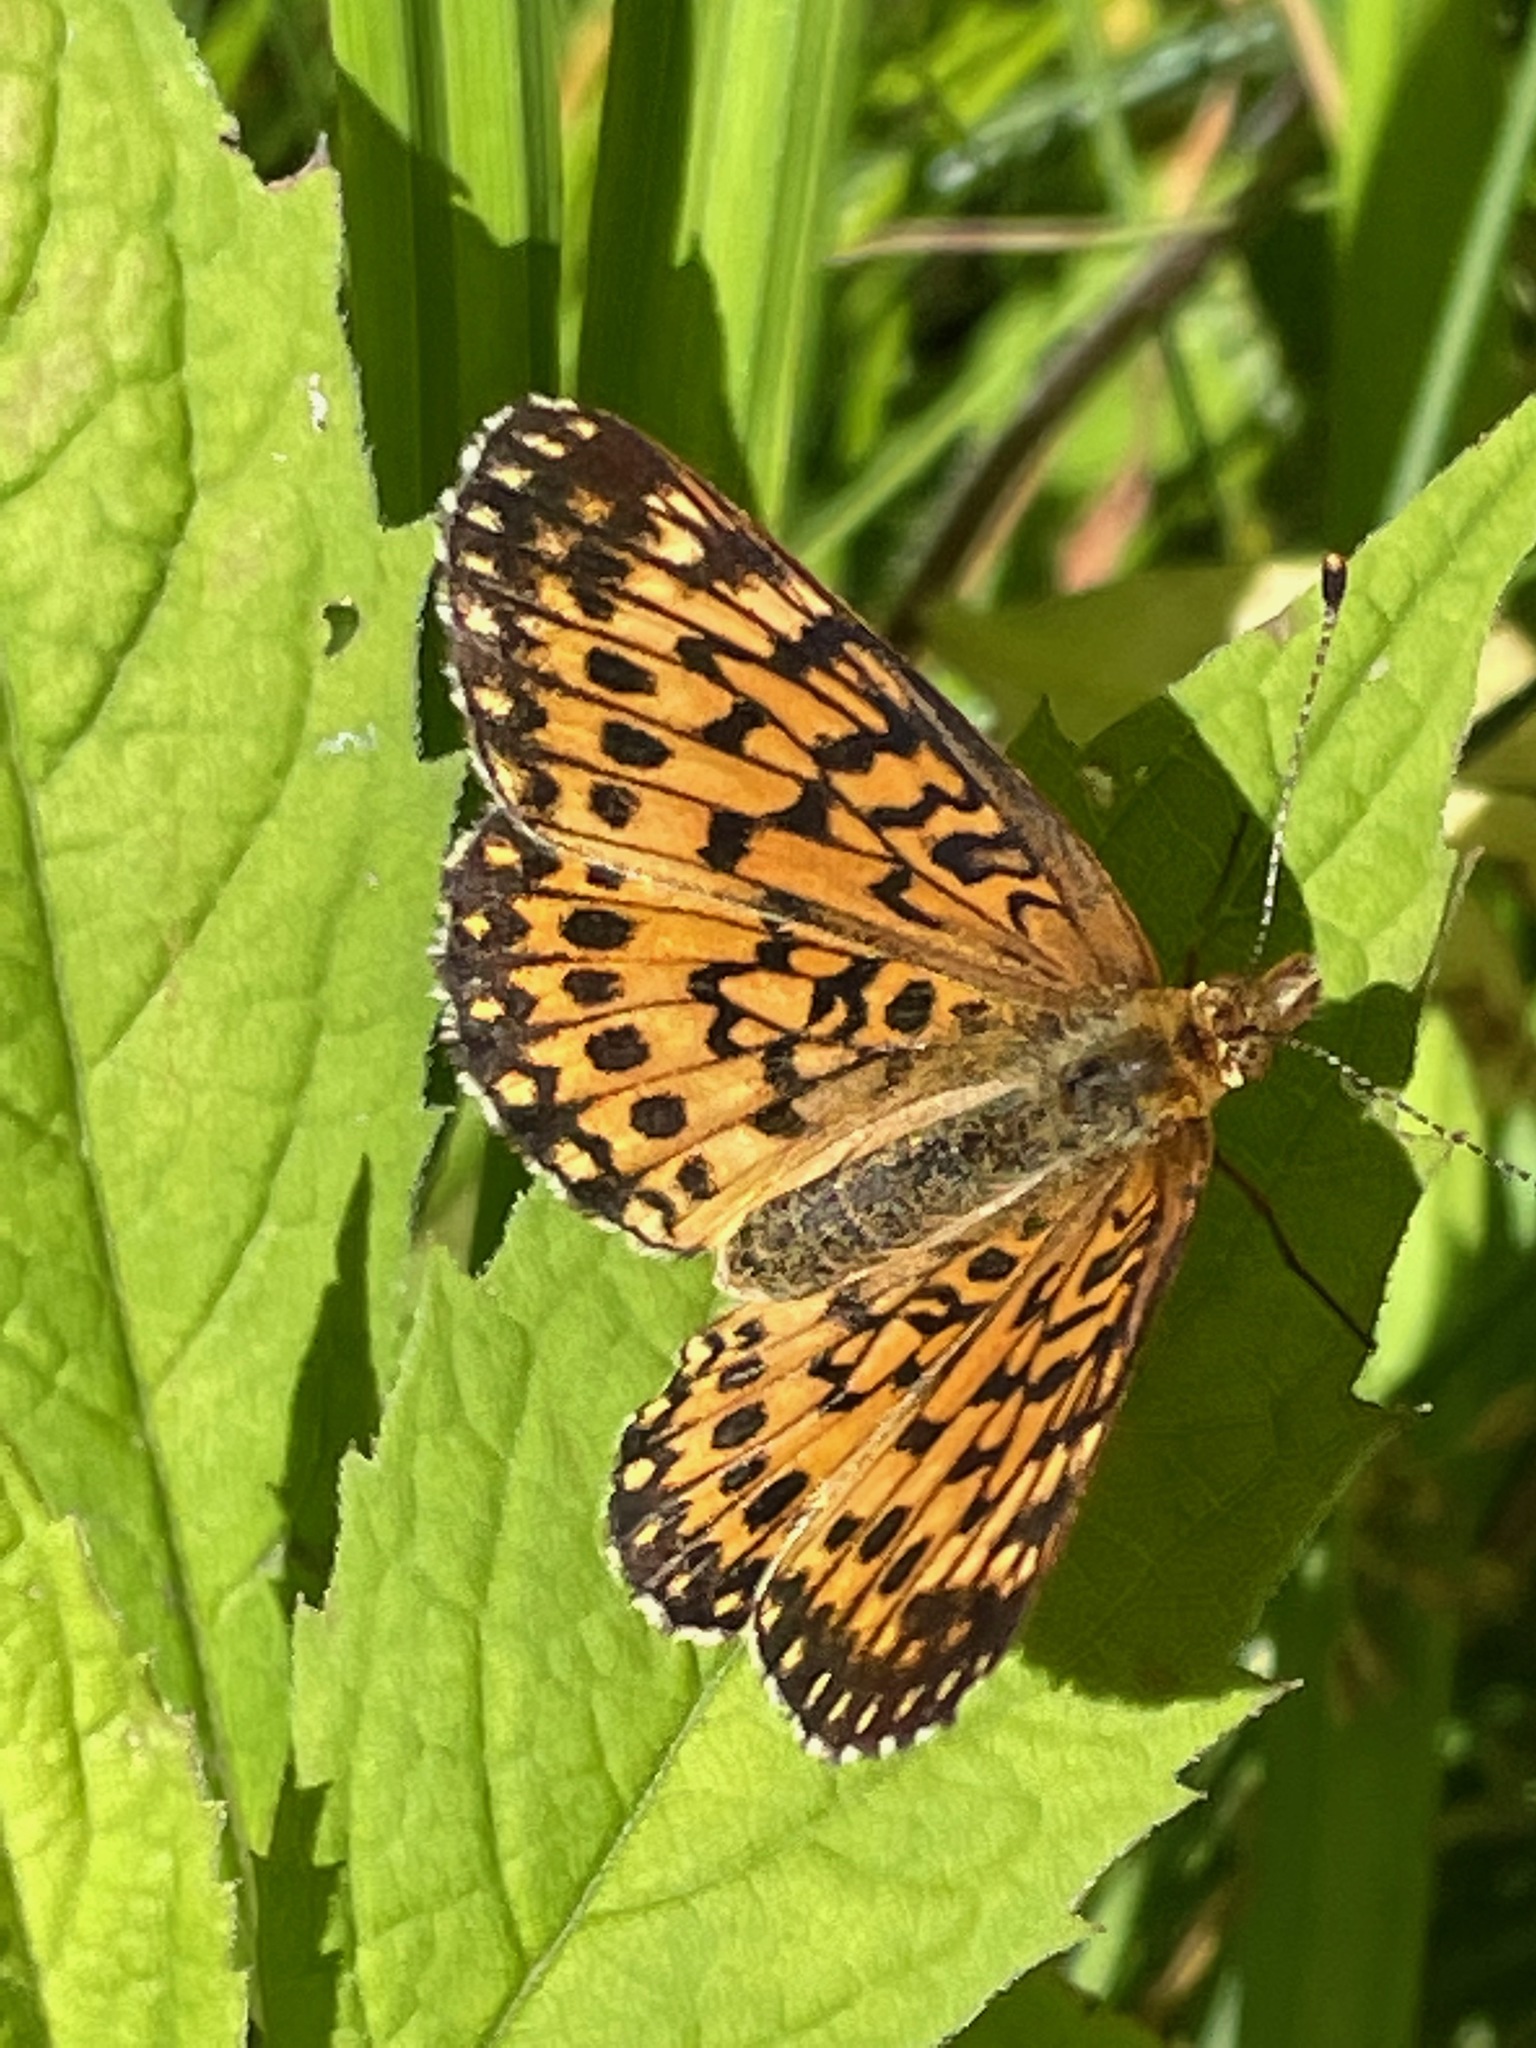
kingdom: Animalia
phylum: Arthropoda
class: Insecta
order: Lepidoptera
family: Nymphalidae
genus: Boloria
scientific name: Boloria
